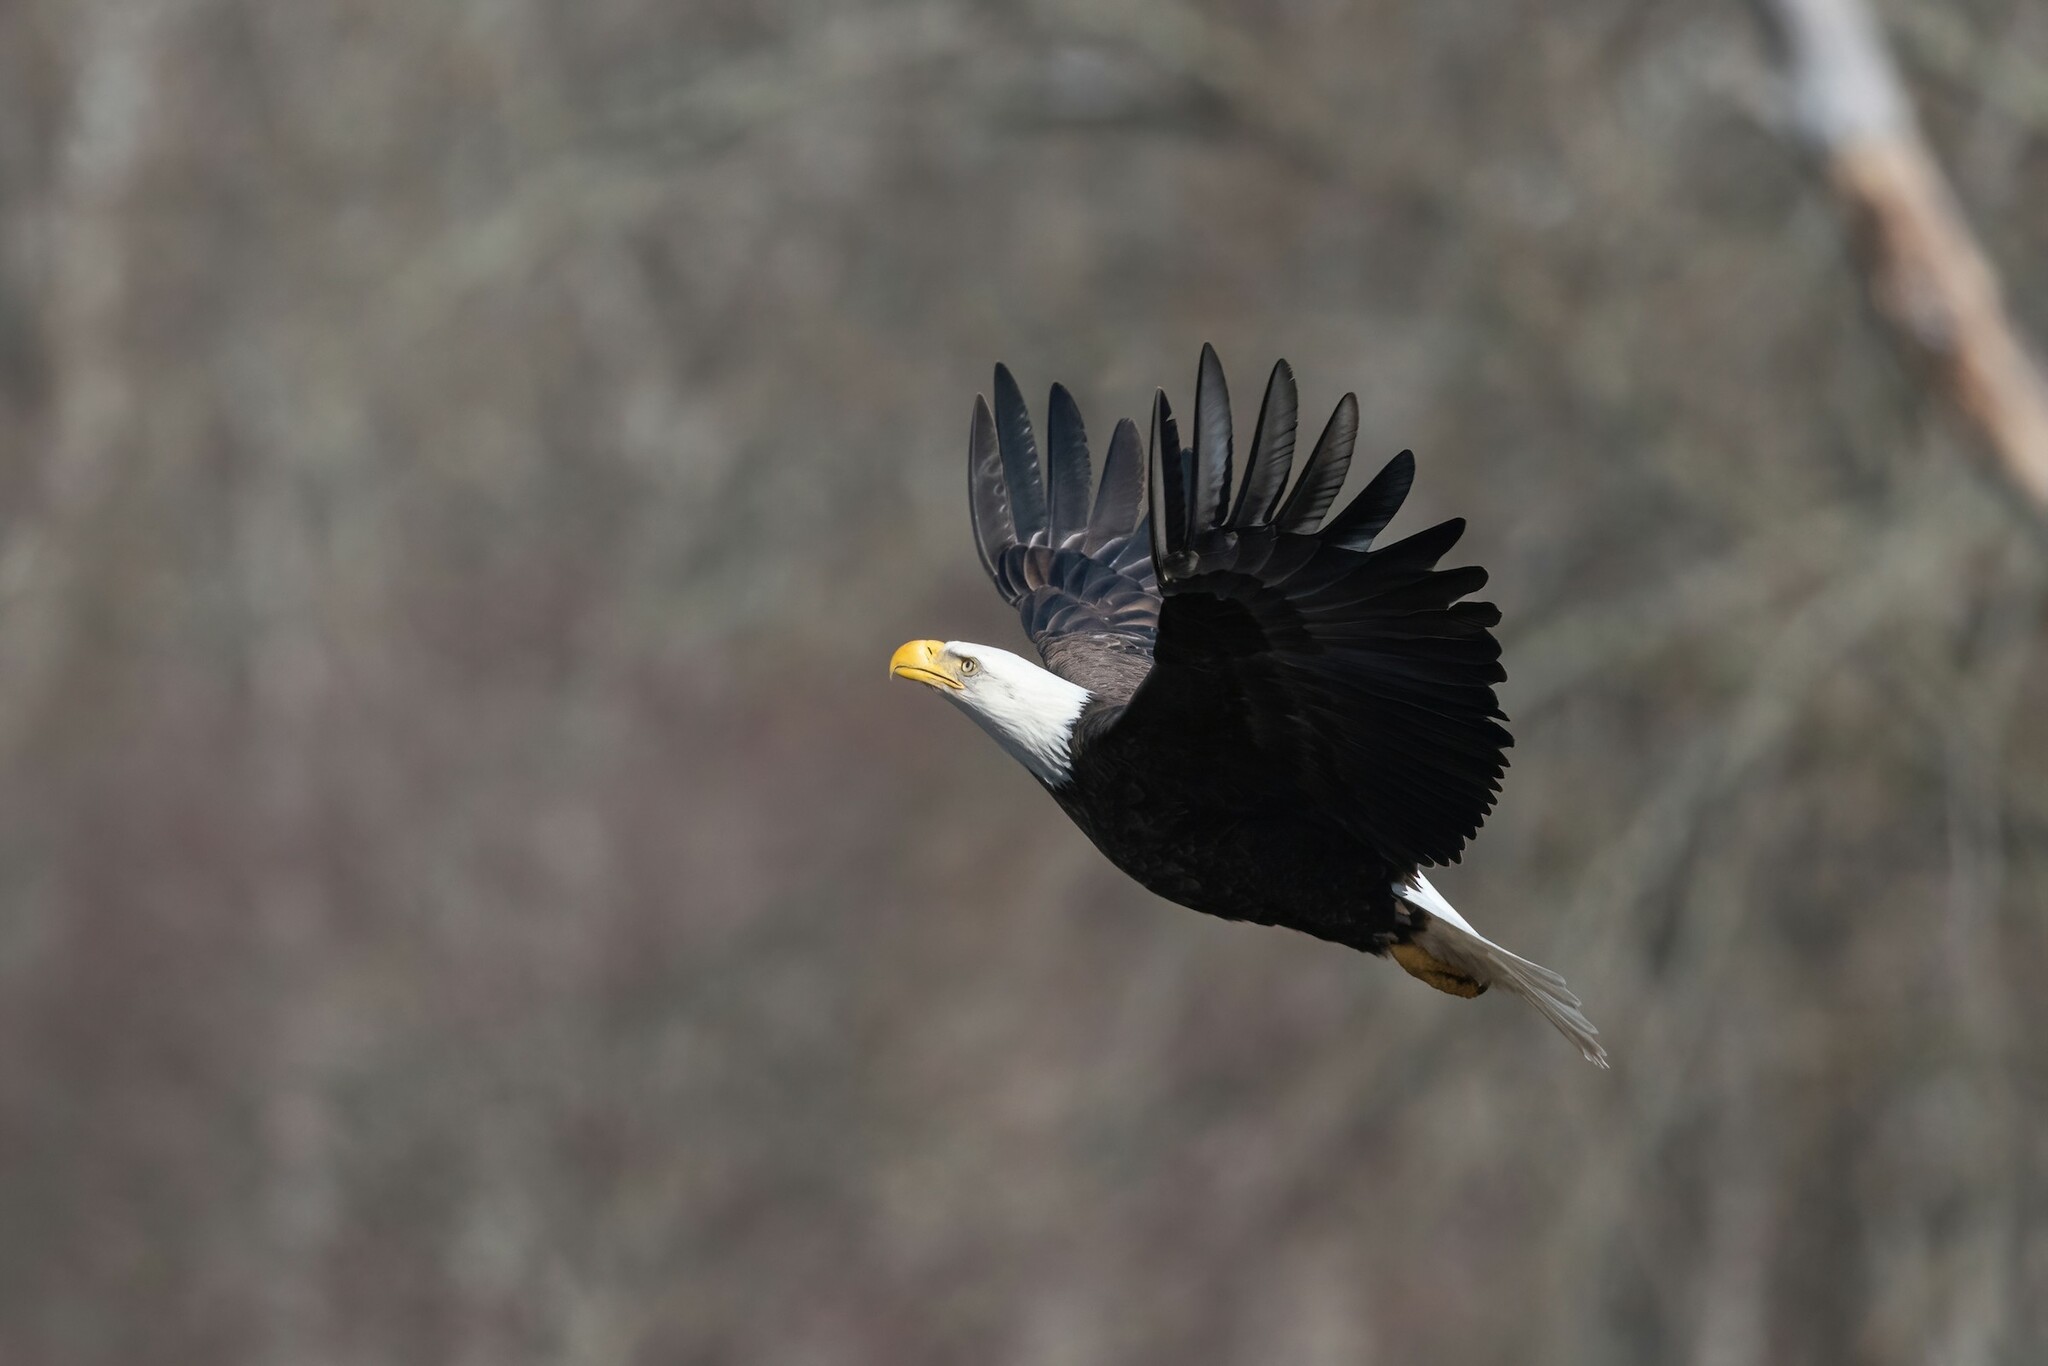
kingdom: Animalia
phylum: Chordata
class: Aves
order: Accipitriformes
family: Accipitridae
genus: Haliaeetus
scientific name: Haliaeetus leucocephalus
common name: Bald eagle
